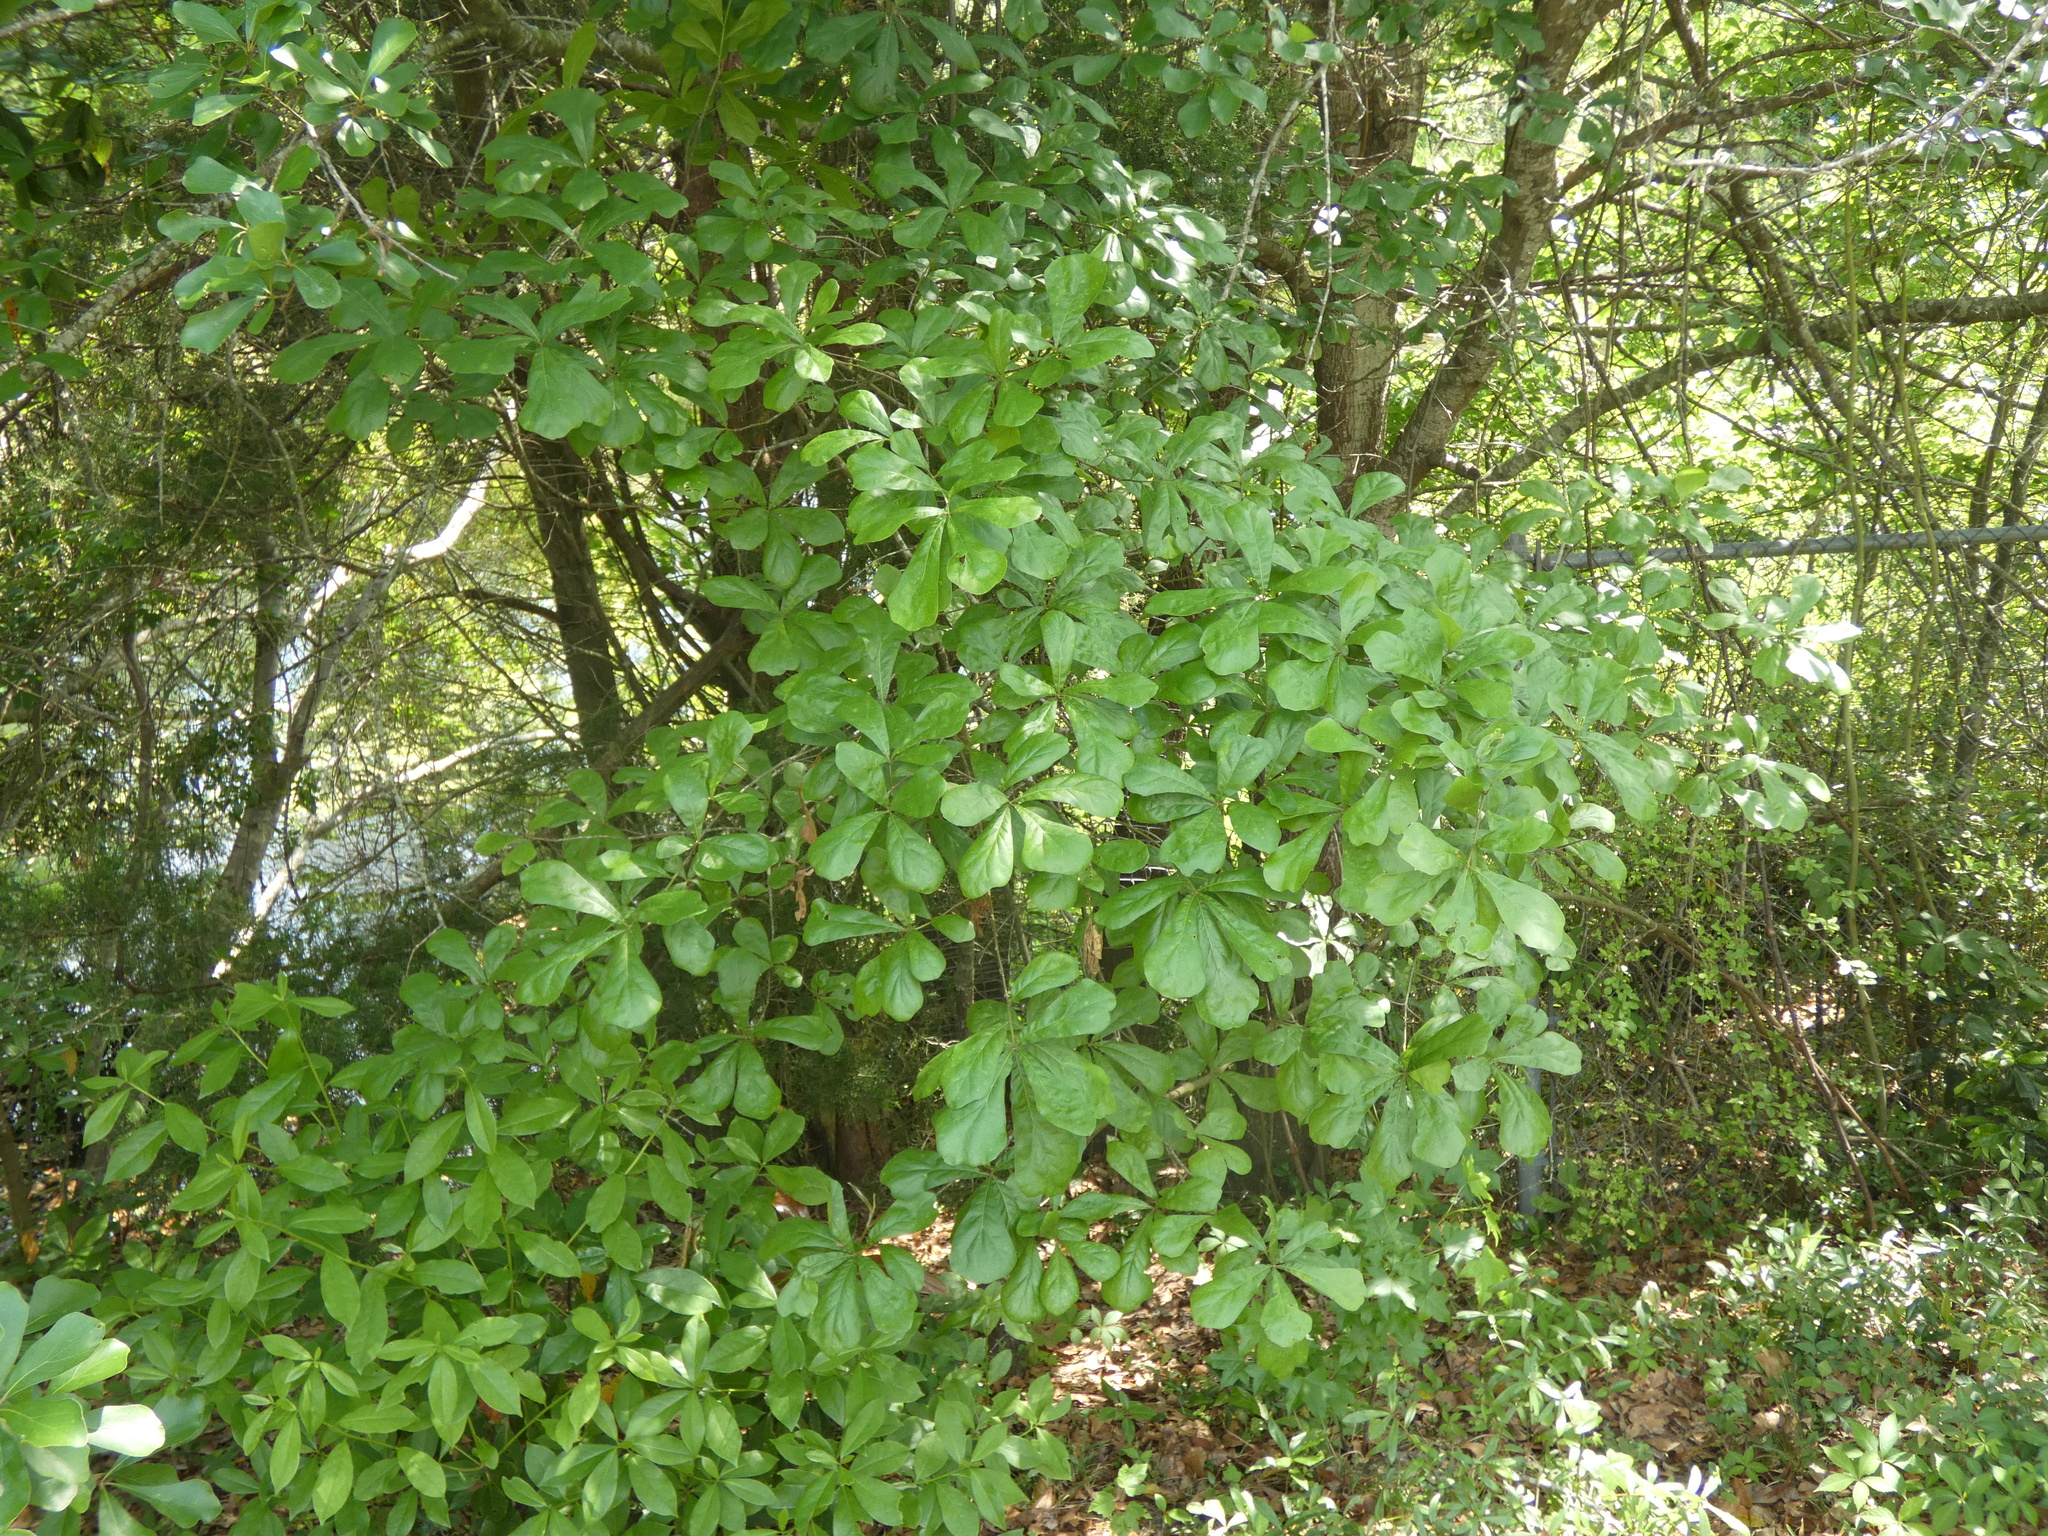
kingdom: Plantae
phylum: Tracheophyta
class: Magnoliopsida
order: Fagales
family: Fagaceae
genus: Quercus
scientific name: Quercus nigra
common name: Water oak
